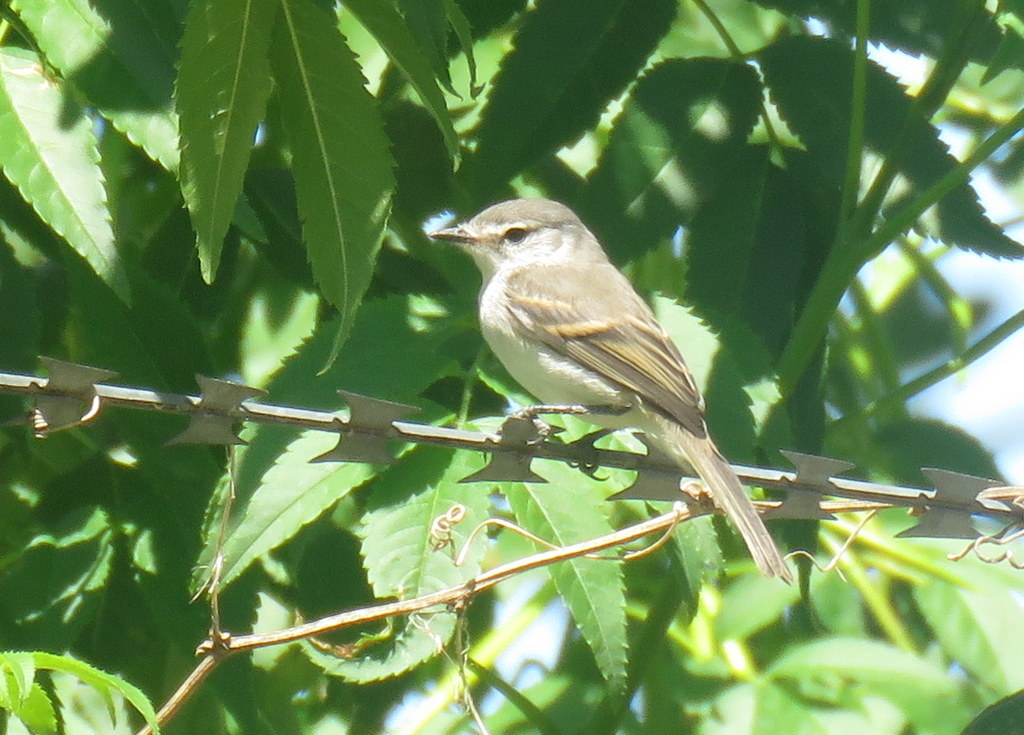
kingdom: Animalia
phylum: Chordata
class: Aves
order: Passeriformes
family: Tyrannidae
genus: Serpophaga
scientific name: Serpophaga subcristata
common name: White-crested tyrannulet
